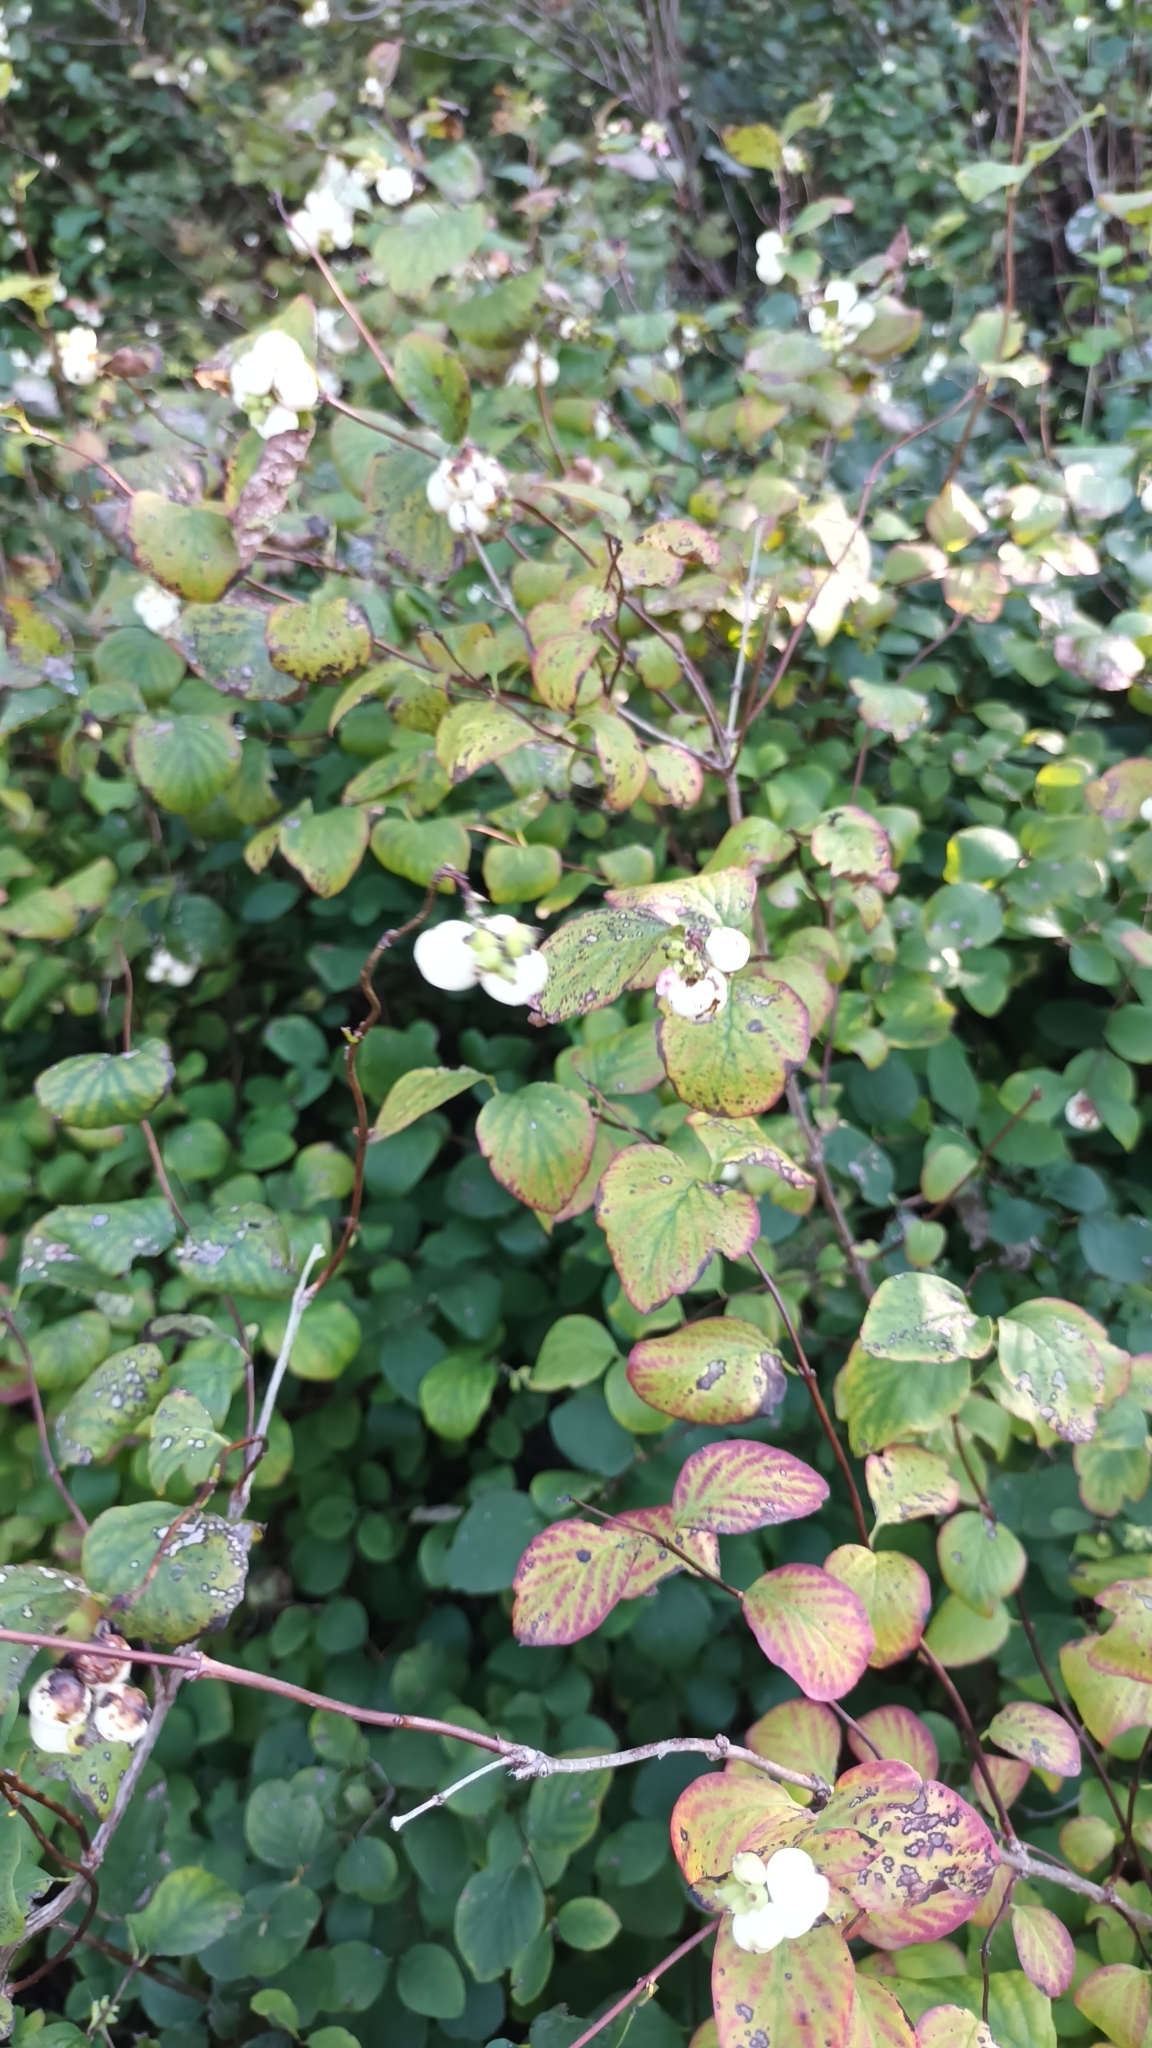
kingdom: Plantae
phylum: Tracheophyta
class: Magnoliopsida
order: Dipsacales
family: Caprifoliaceae
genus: Symphoricarpos
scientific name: Symphoricarpos albus
